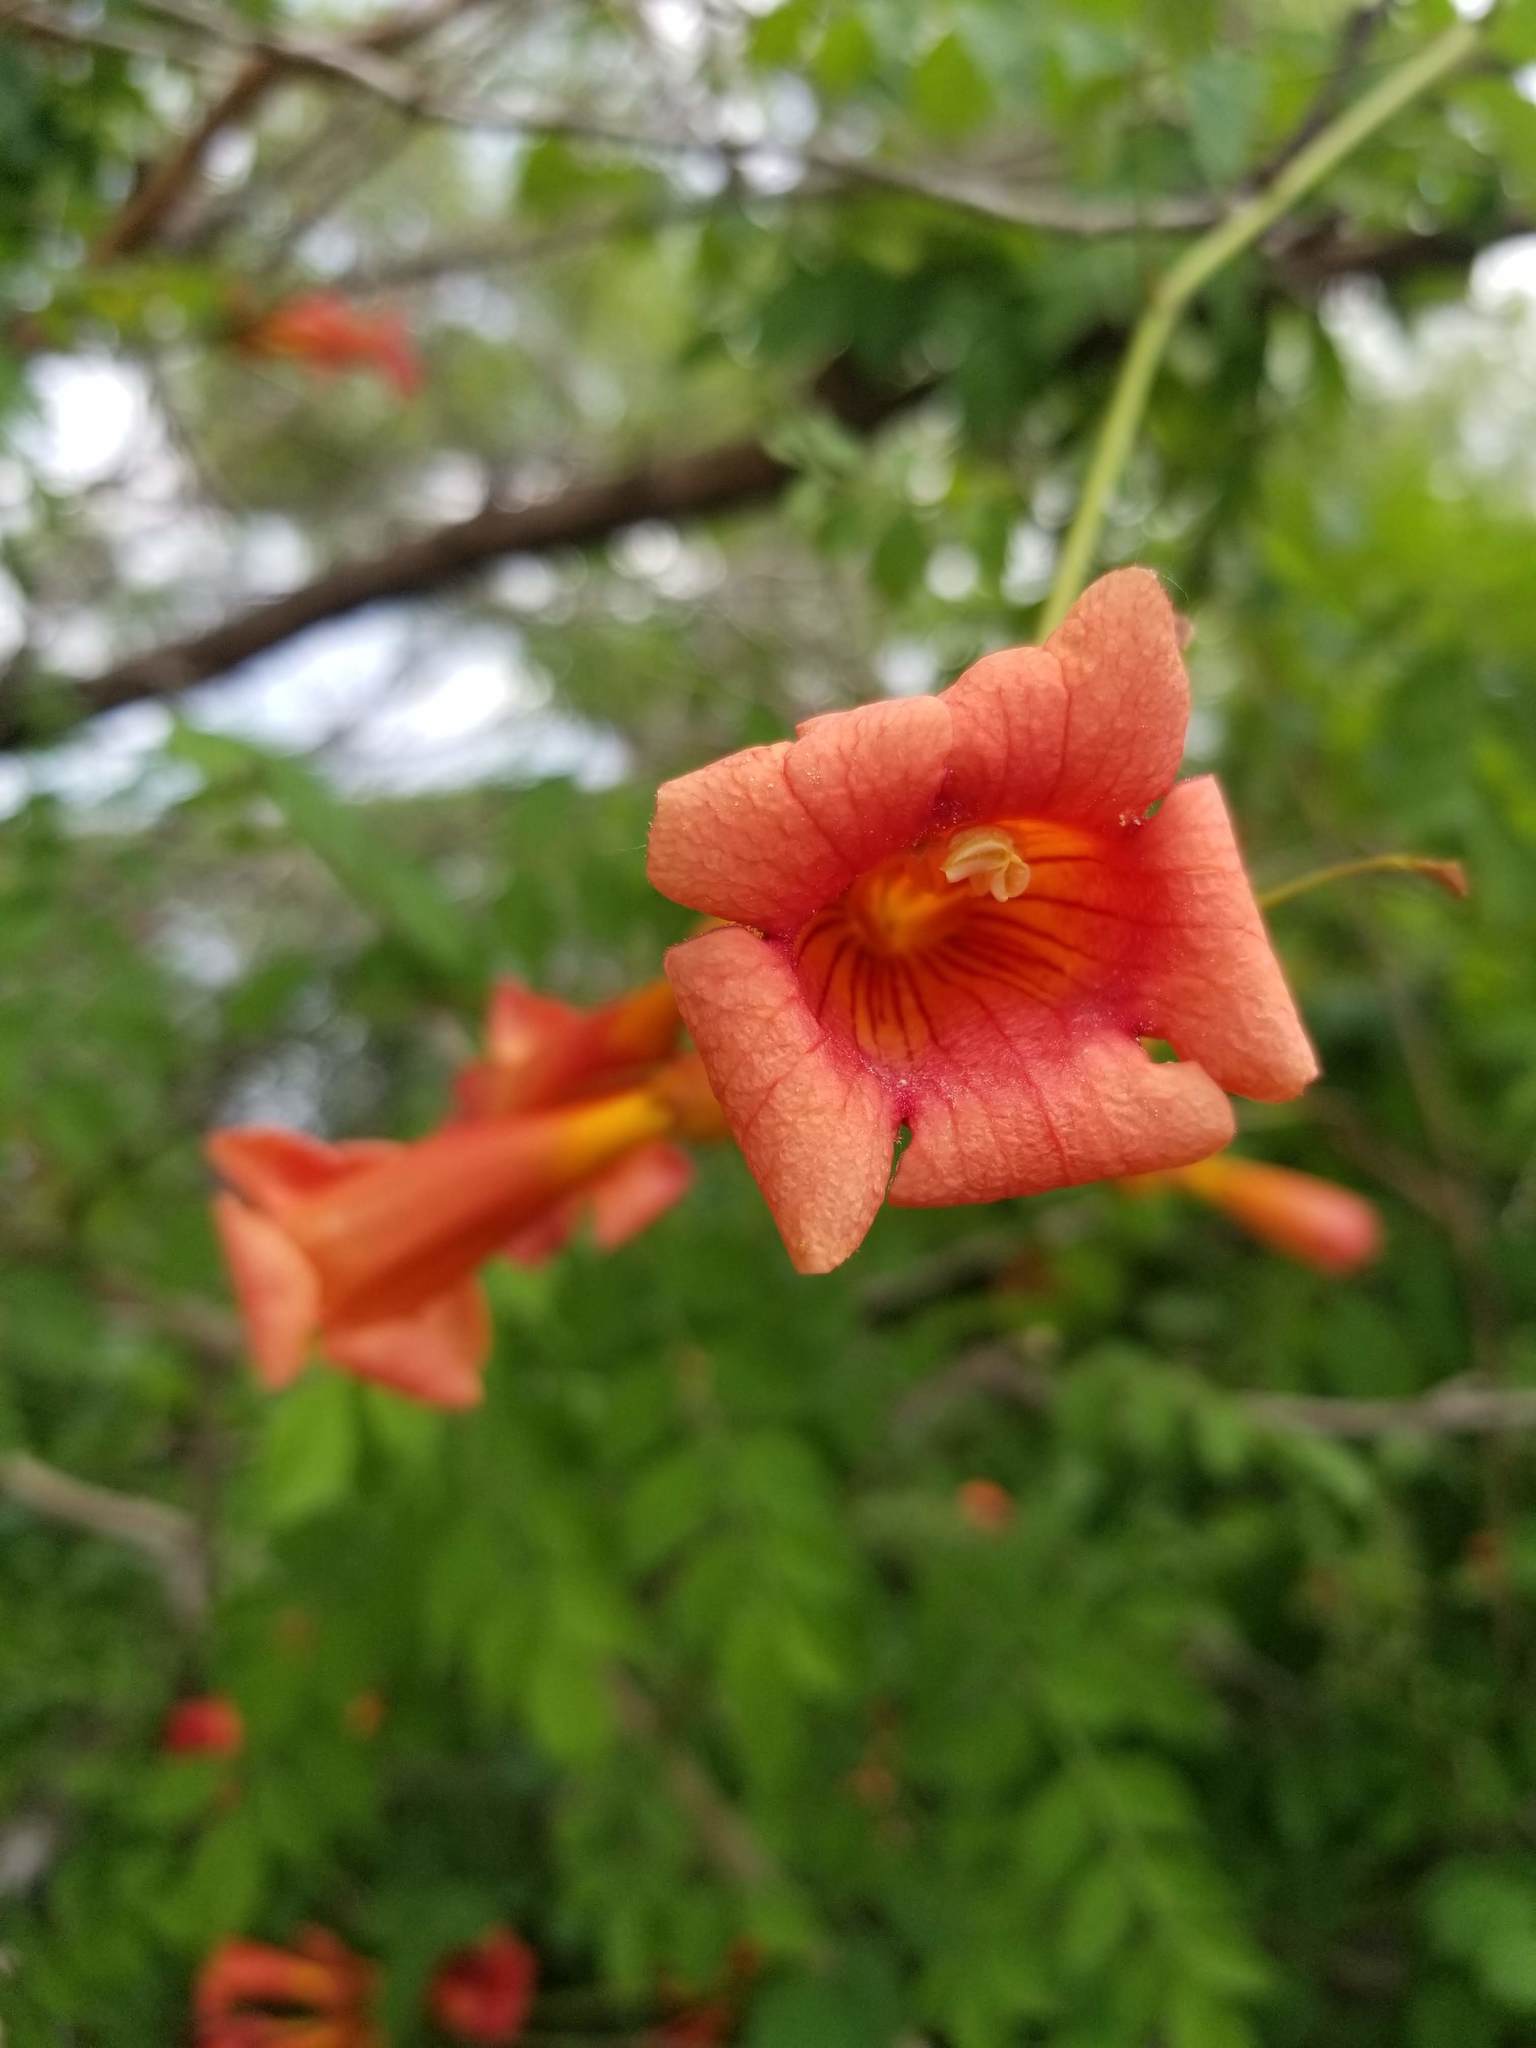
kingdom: Plantae
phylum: Tracheophyta
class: Magnoliopsida
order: Lamiales
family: Bignoniaceae
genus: Campsis
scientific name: Campsis radicans
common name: Trumpet-creeper
